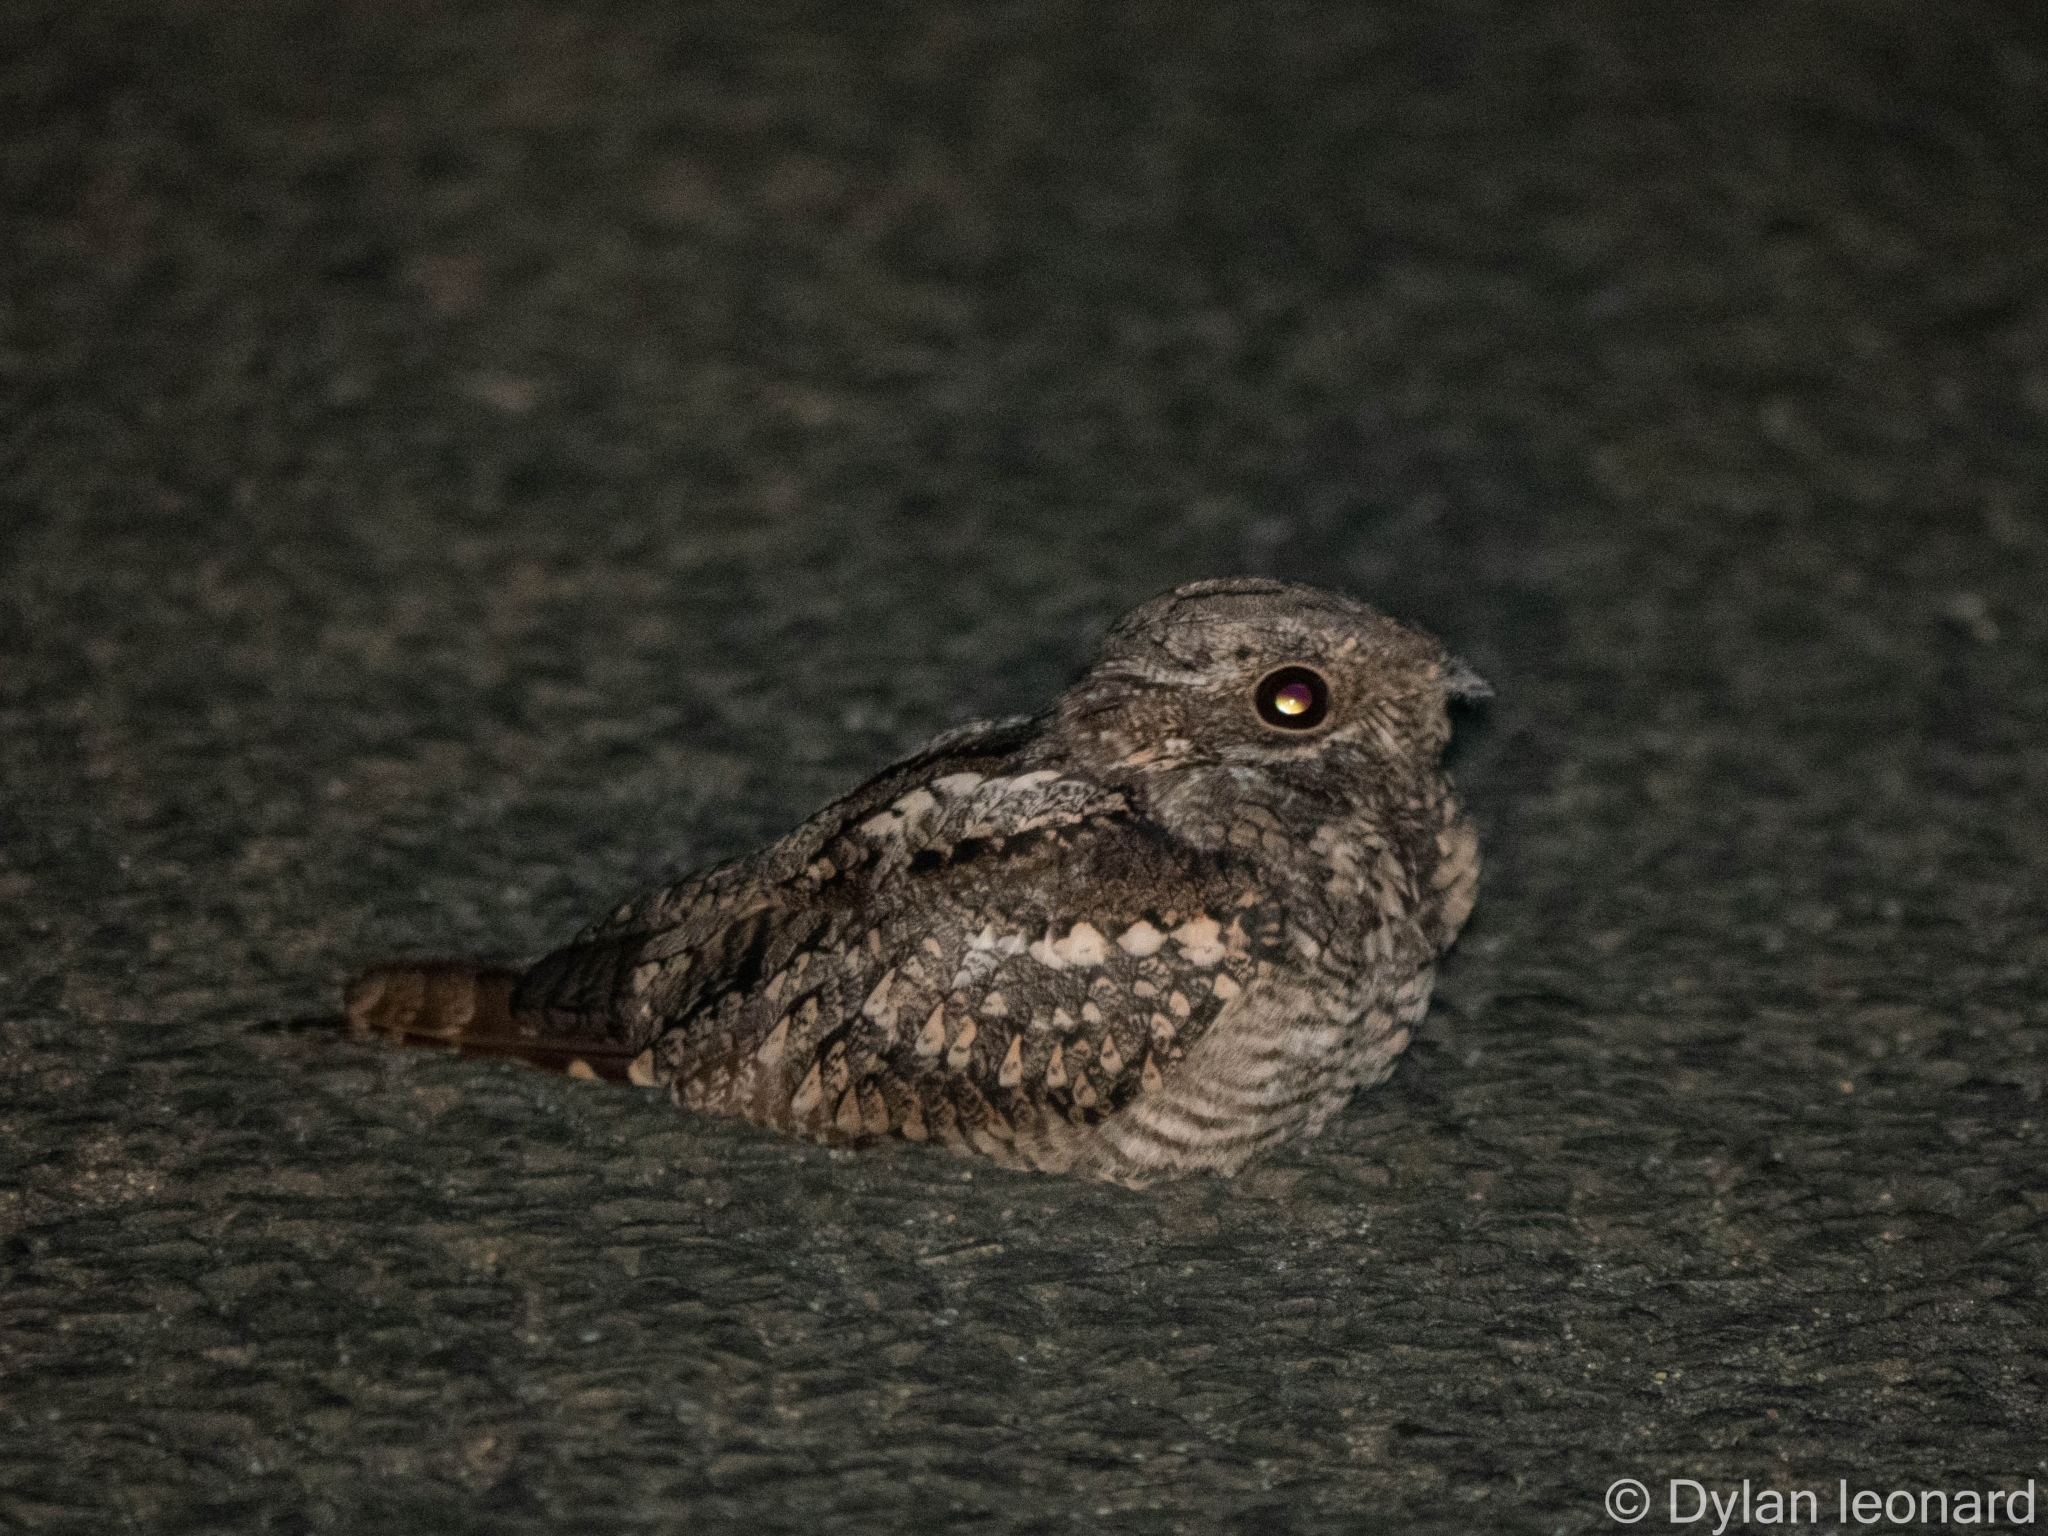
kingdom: Animalia
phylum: Chordata
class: Aves
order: Caprimulgiformes
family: Caprimulgidae
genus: Caprimulgus
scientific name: Caprimulgus europaeus
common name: European nightjar
